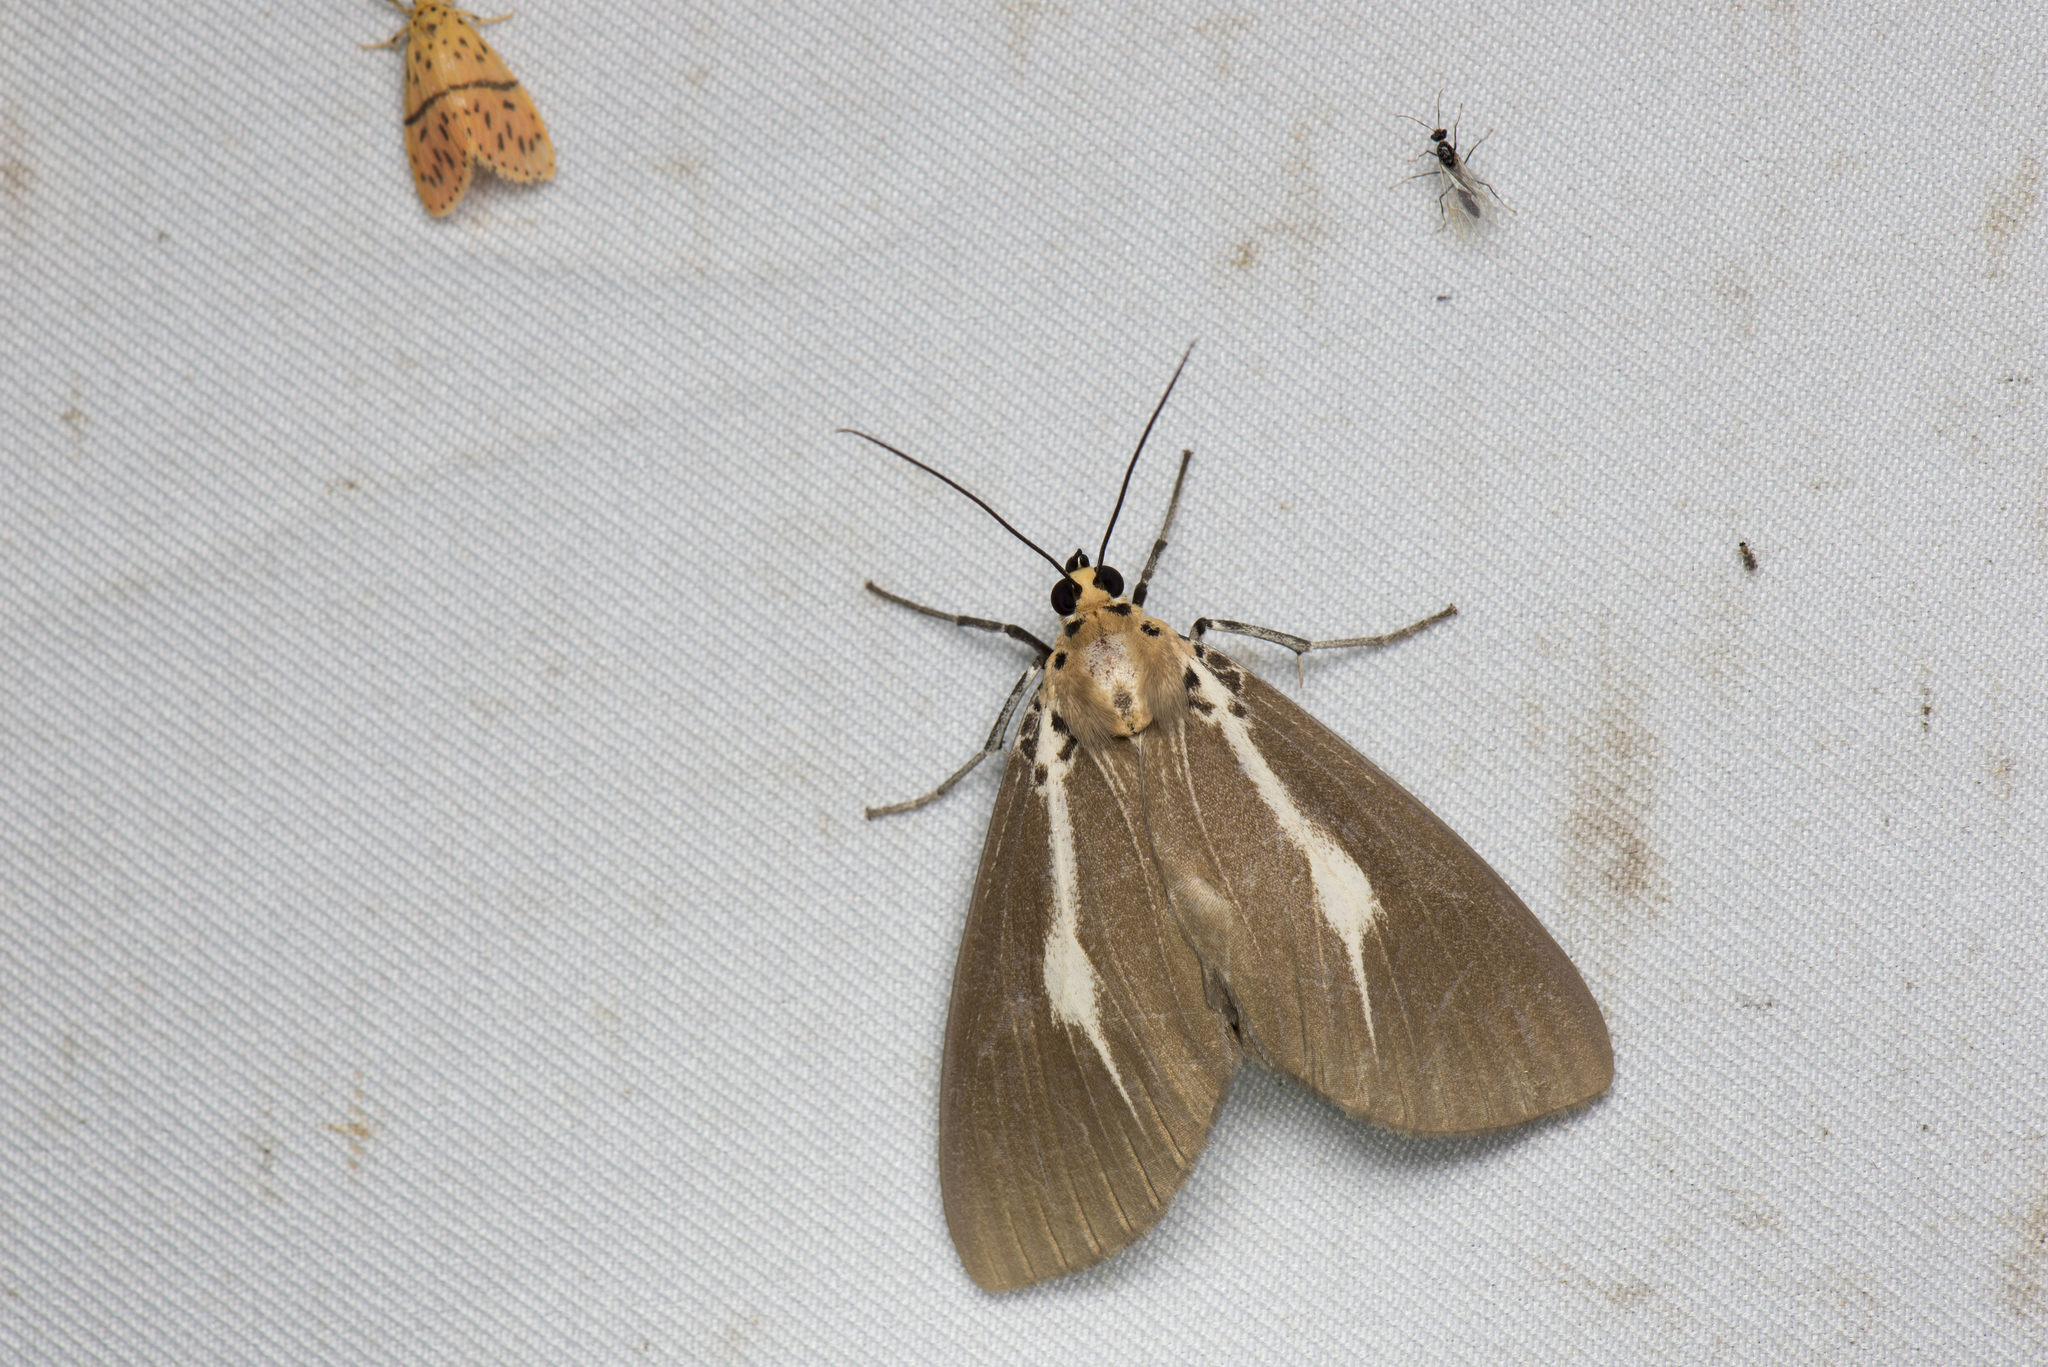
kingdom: Animalia
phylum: Arthropoda
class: Insecta
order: Lepidoptera
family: Erebidae
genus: Asota
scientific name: Asota heliconia
